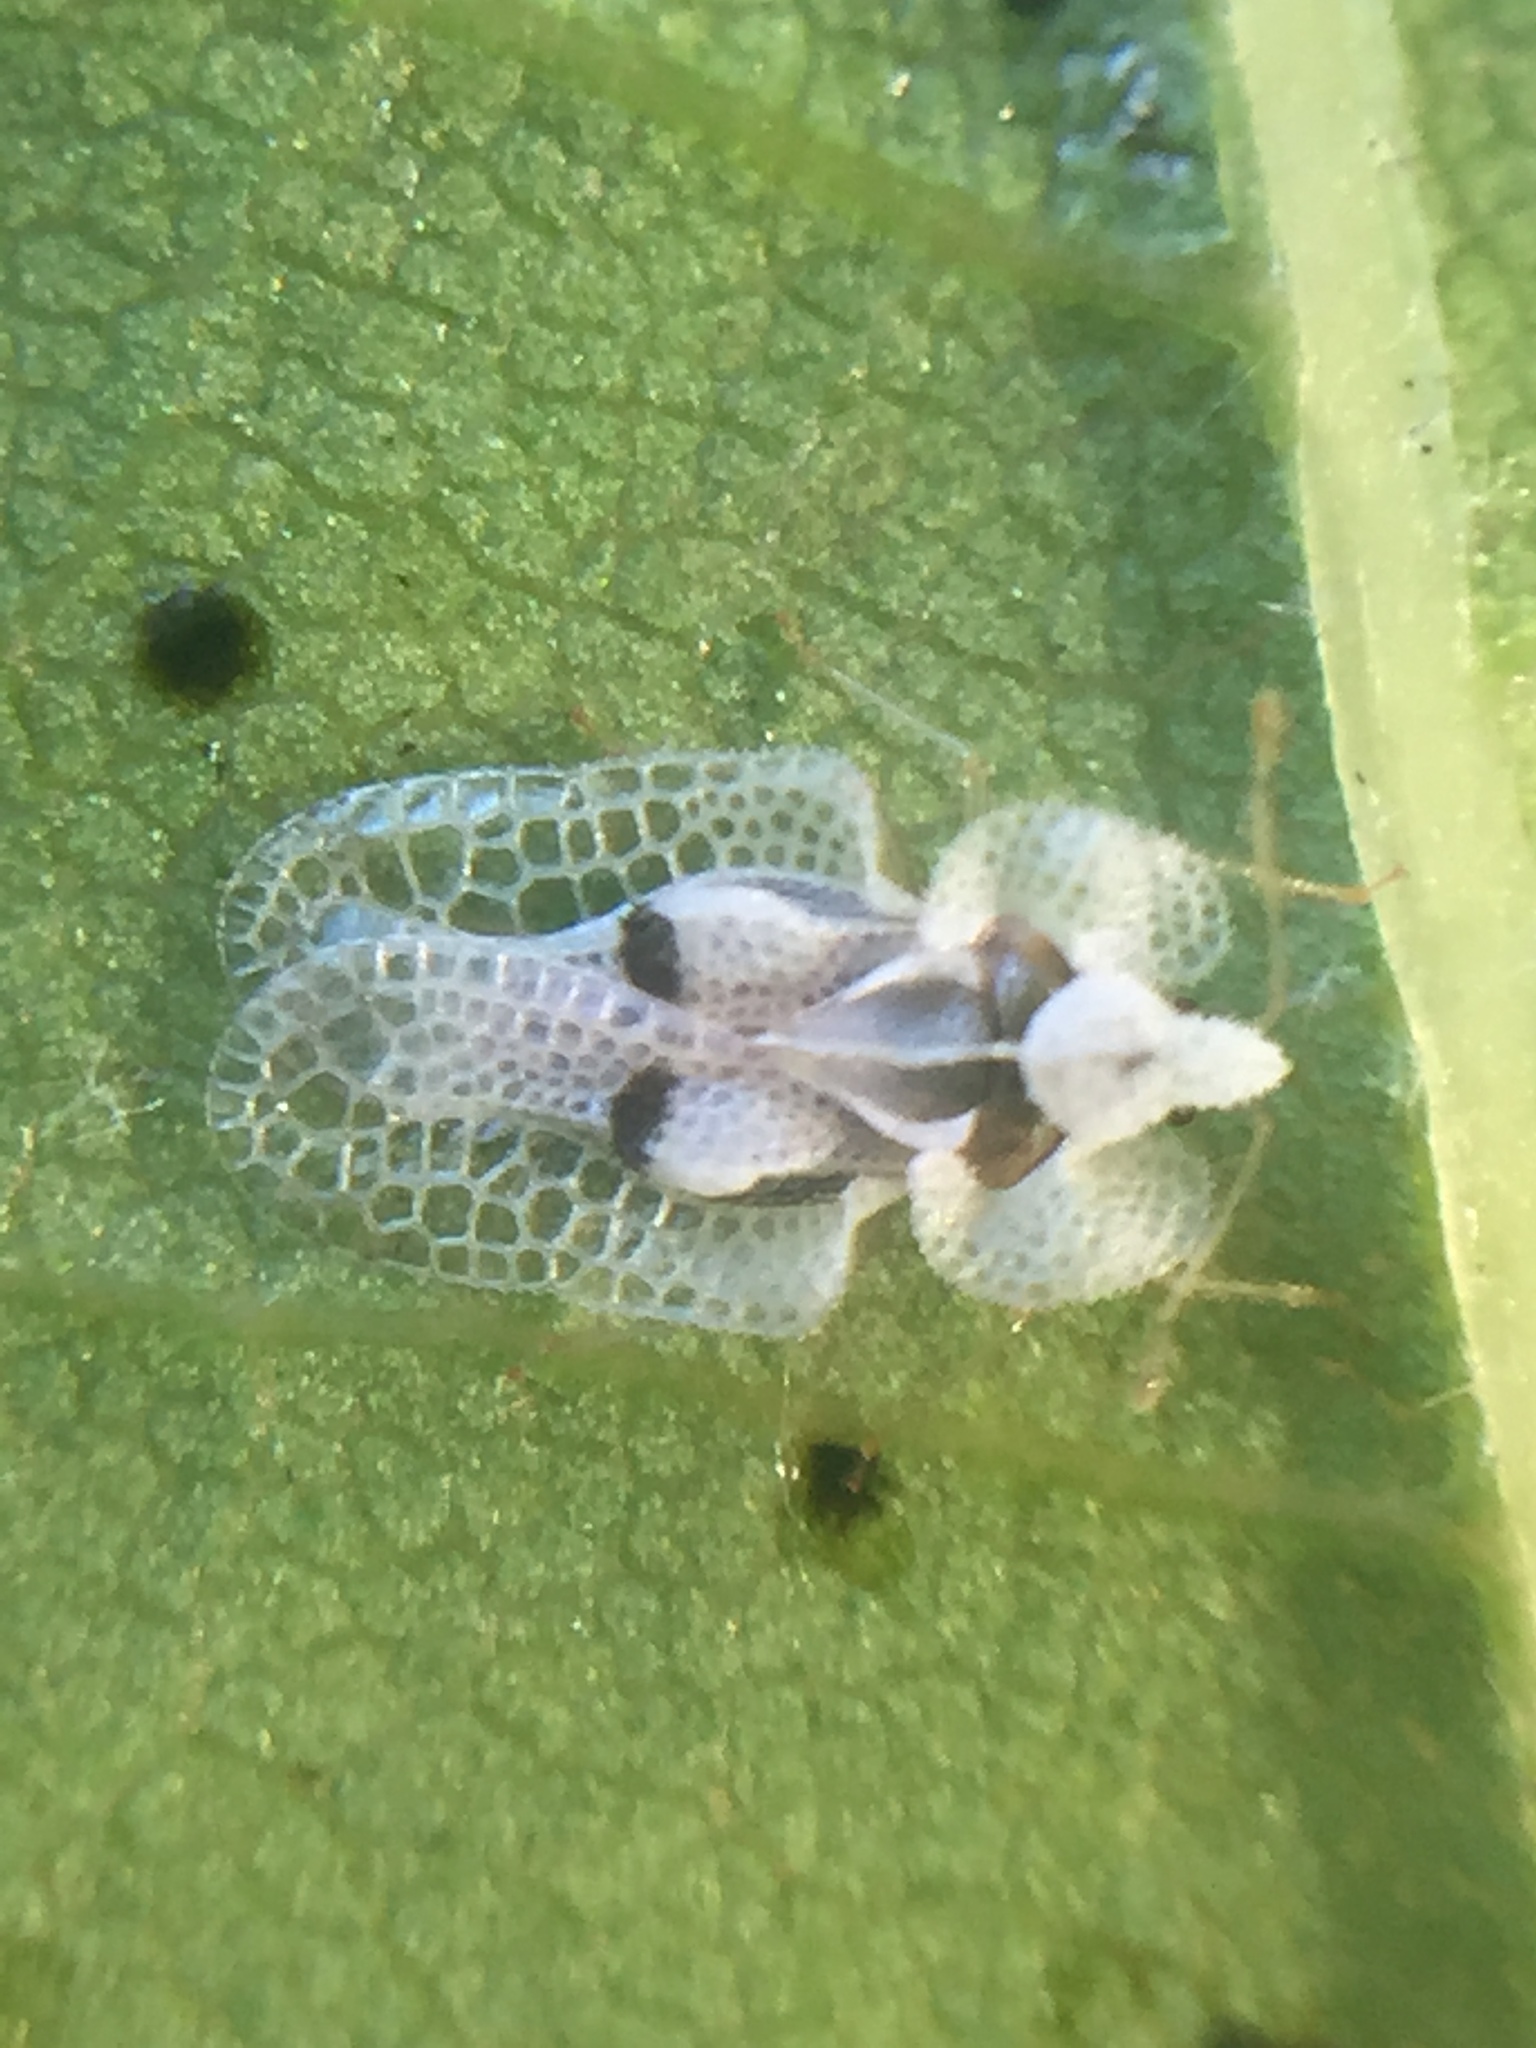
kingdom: Animalia
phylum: Arthropoda
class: Insecta
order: Hemiptera
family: Tingidae
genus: Corythucha
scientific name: Corythucha ciliata
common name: Sycamore lace bug
